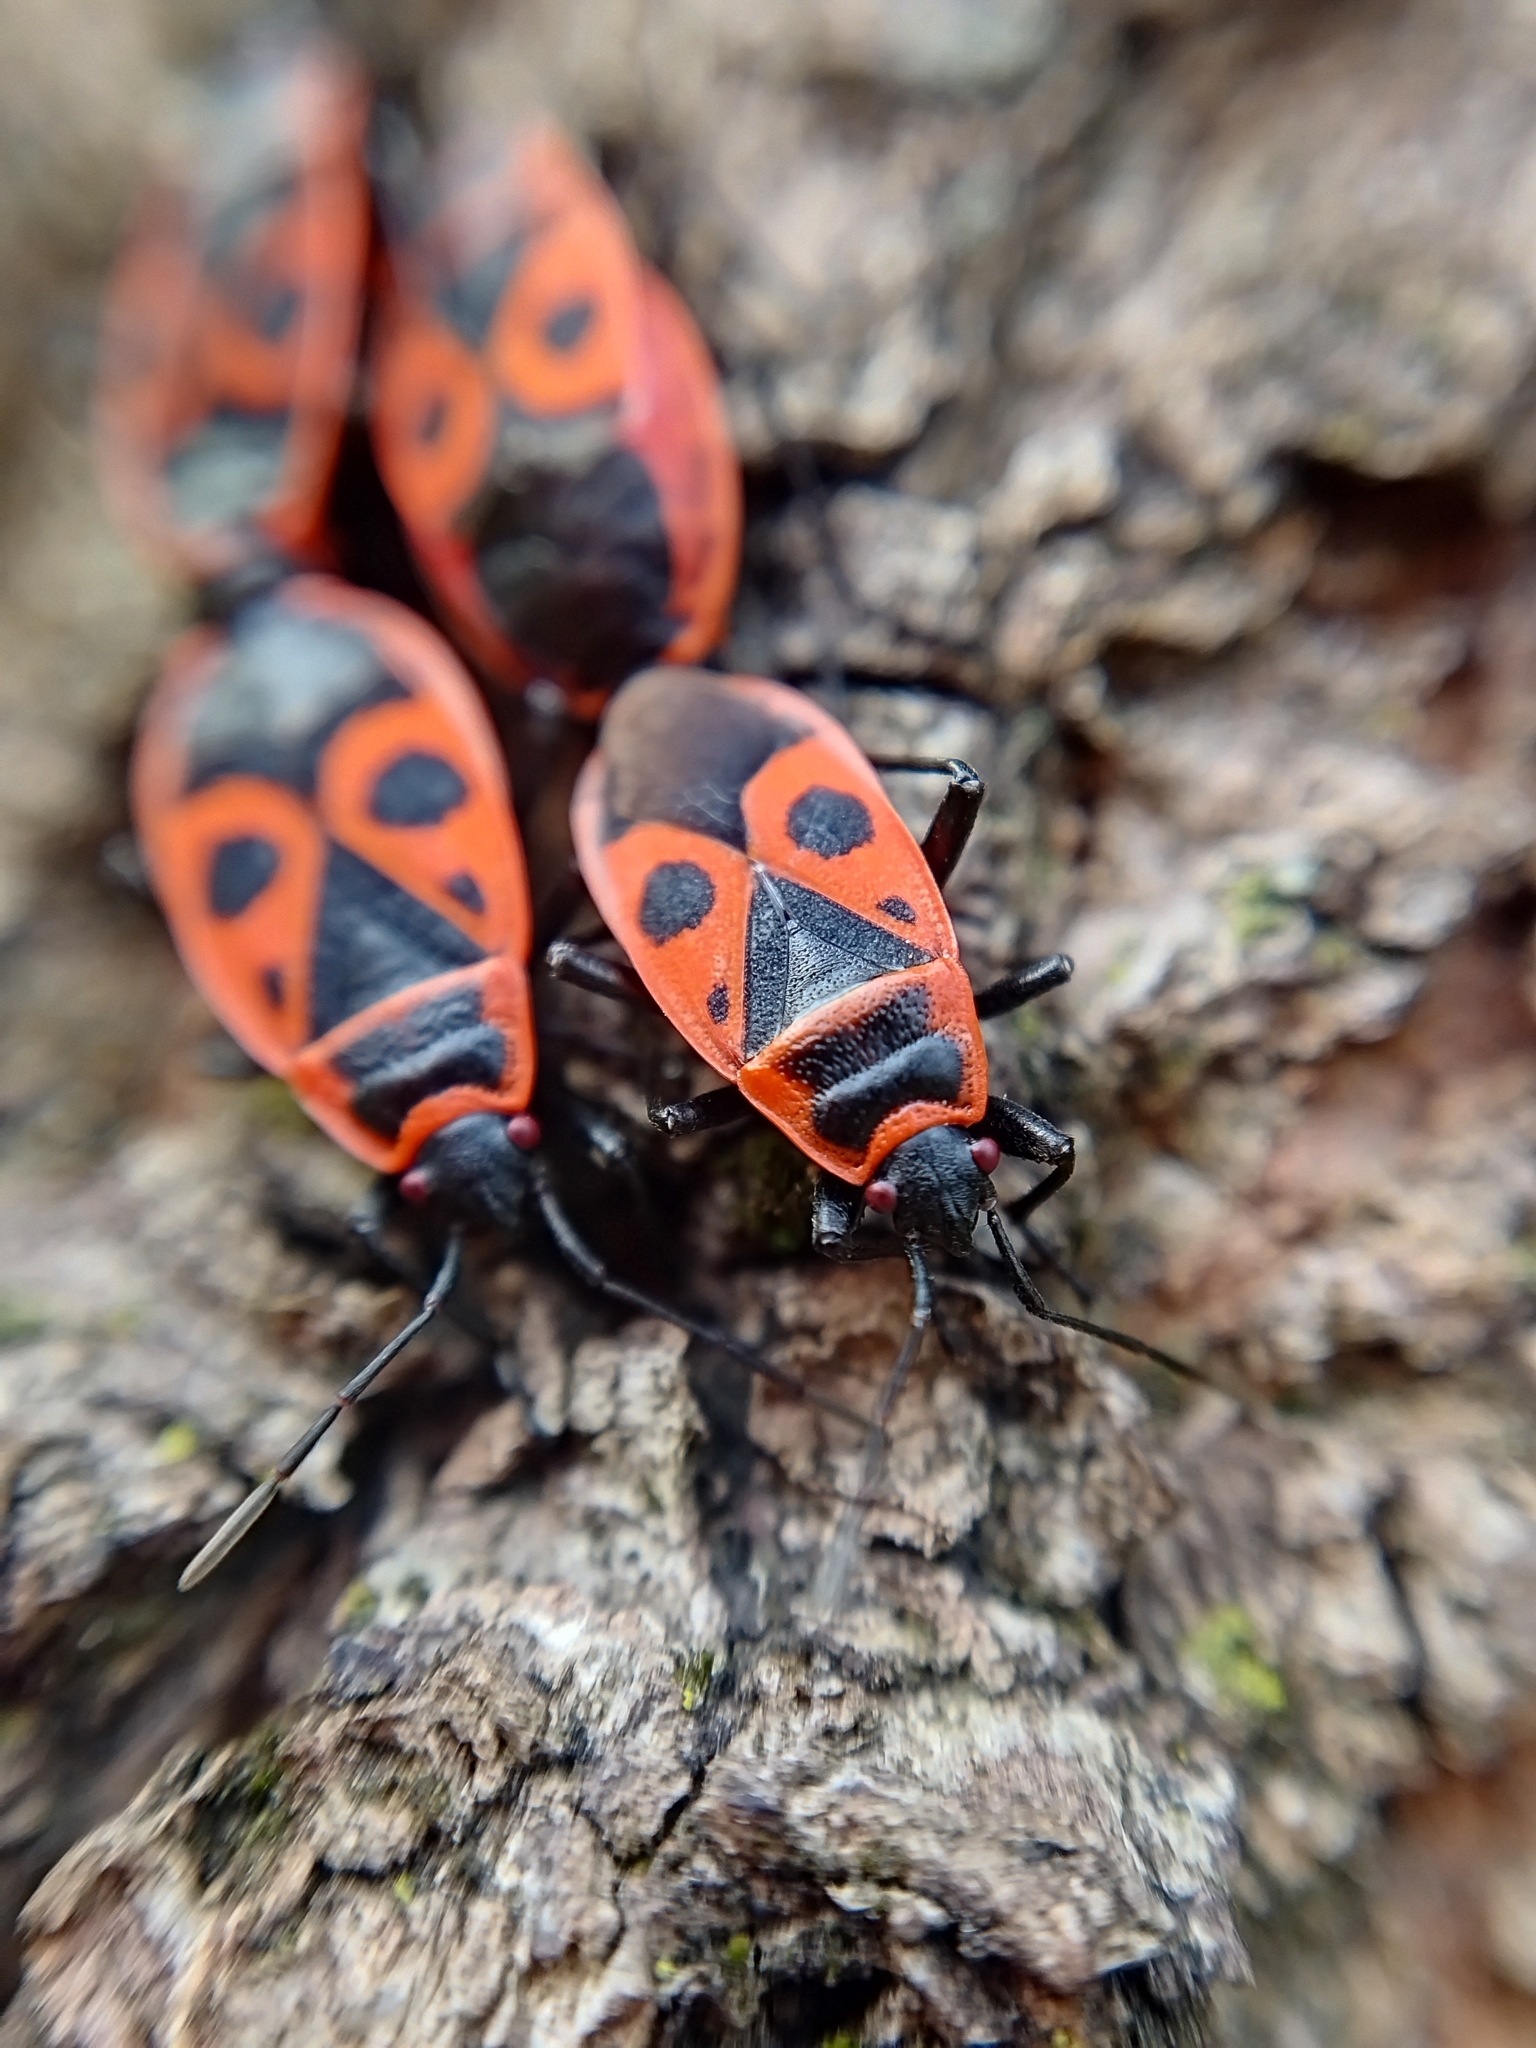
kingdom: Animalia
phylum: Arthropoda
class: Insecta
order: Hemiptera
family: Pyrrhocoridae
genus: Pyrrhocoris
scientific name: Pyrrhocoris apterus
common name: Firebug
